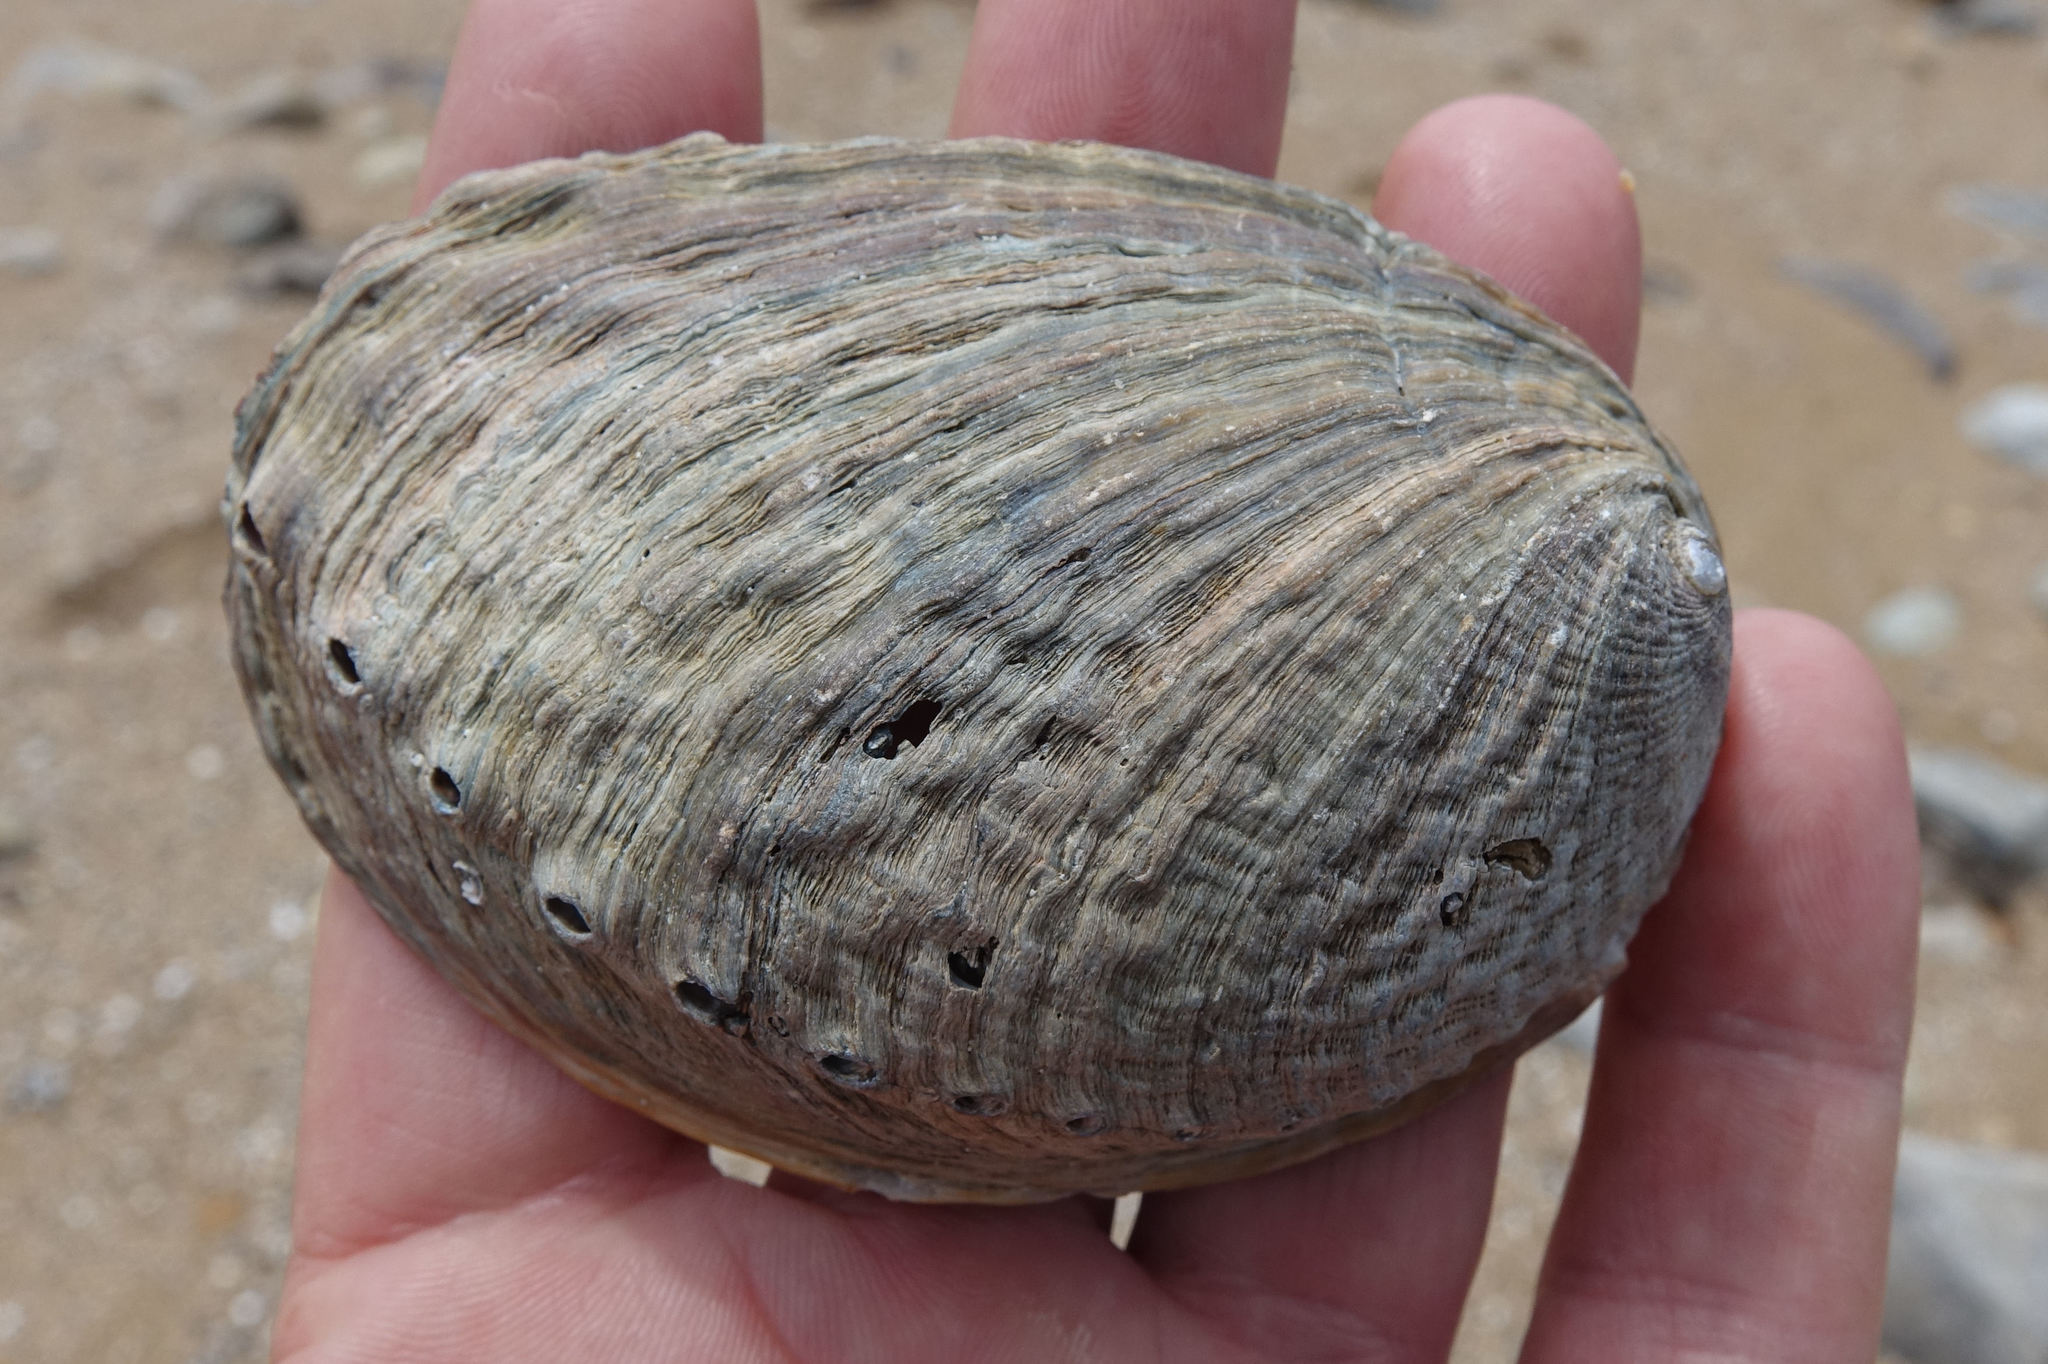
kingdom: Animalia
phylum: Mollusca
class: Gastropoda
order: Lepetellida
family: Haliotidae
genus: Haliotis
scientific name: Haliotis iris
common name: Abalone
